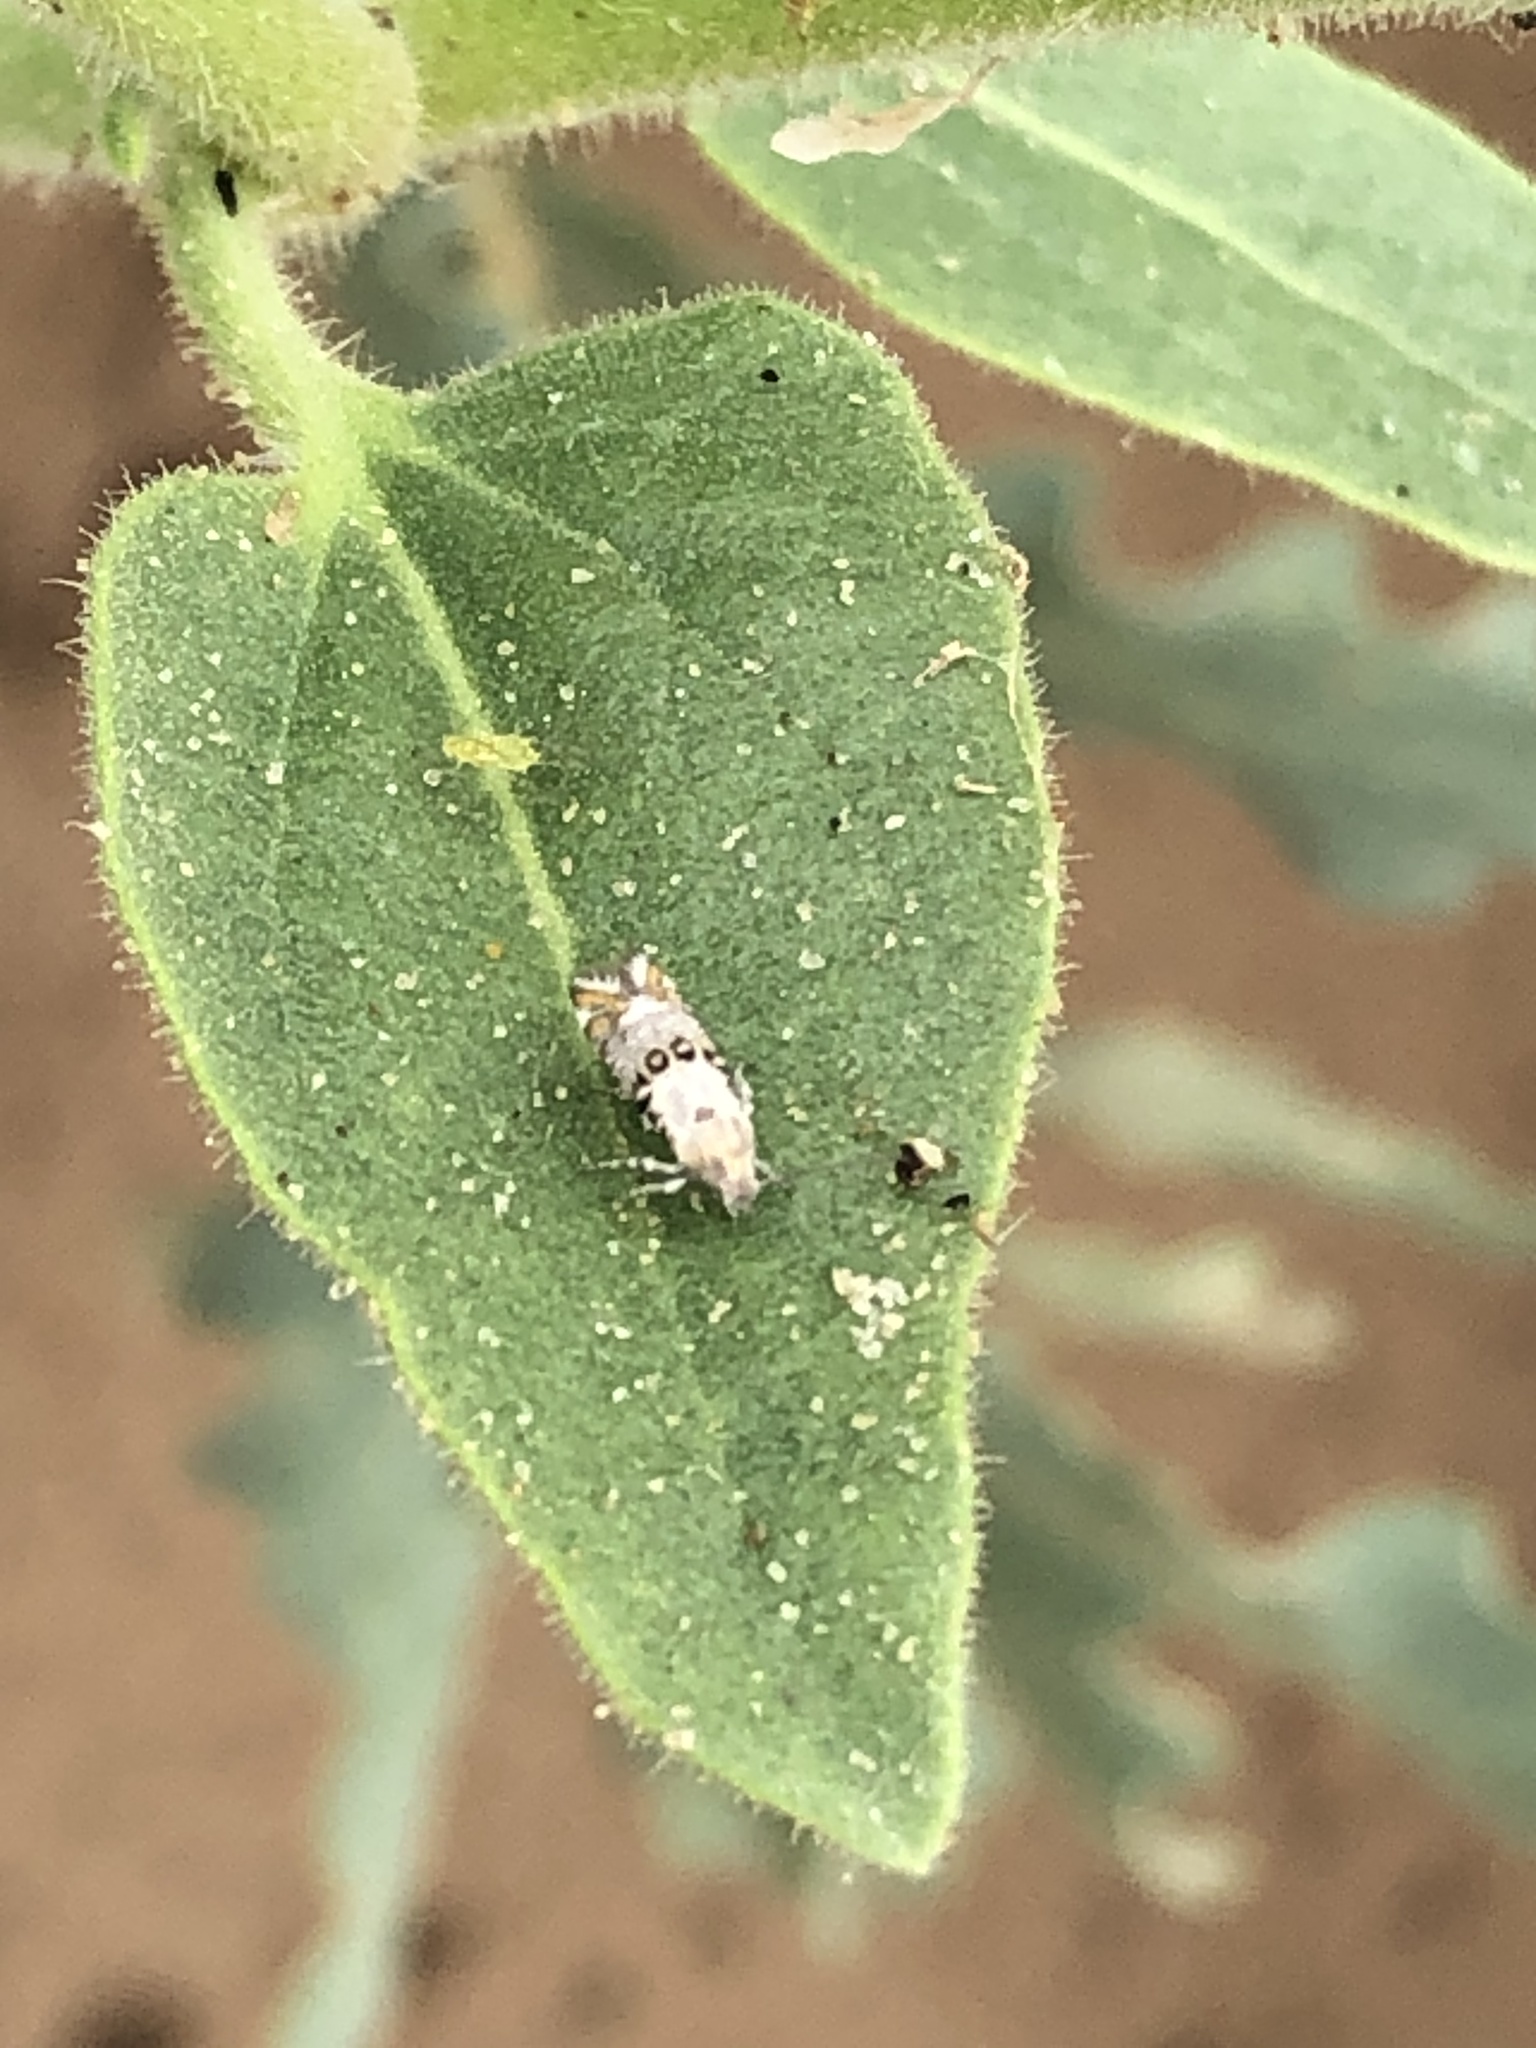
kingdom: Animalia
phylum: Arthropoda
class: Insecta
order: Lepidoptera
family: Heliodinidae
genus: Lithariapteryx
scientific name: Lithariapteryx abroniaeella
